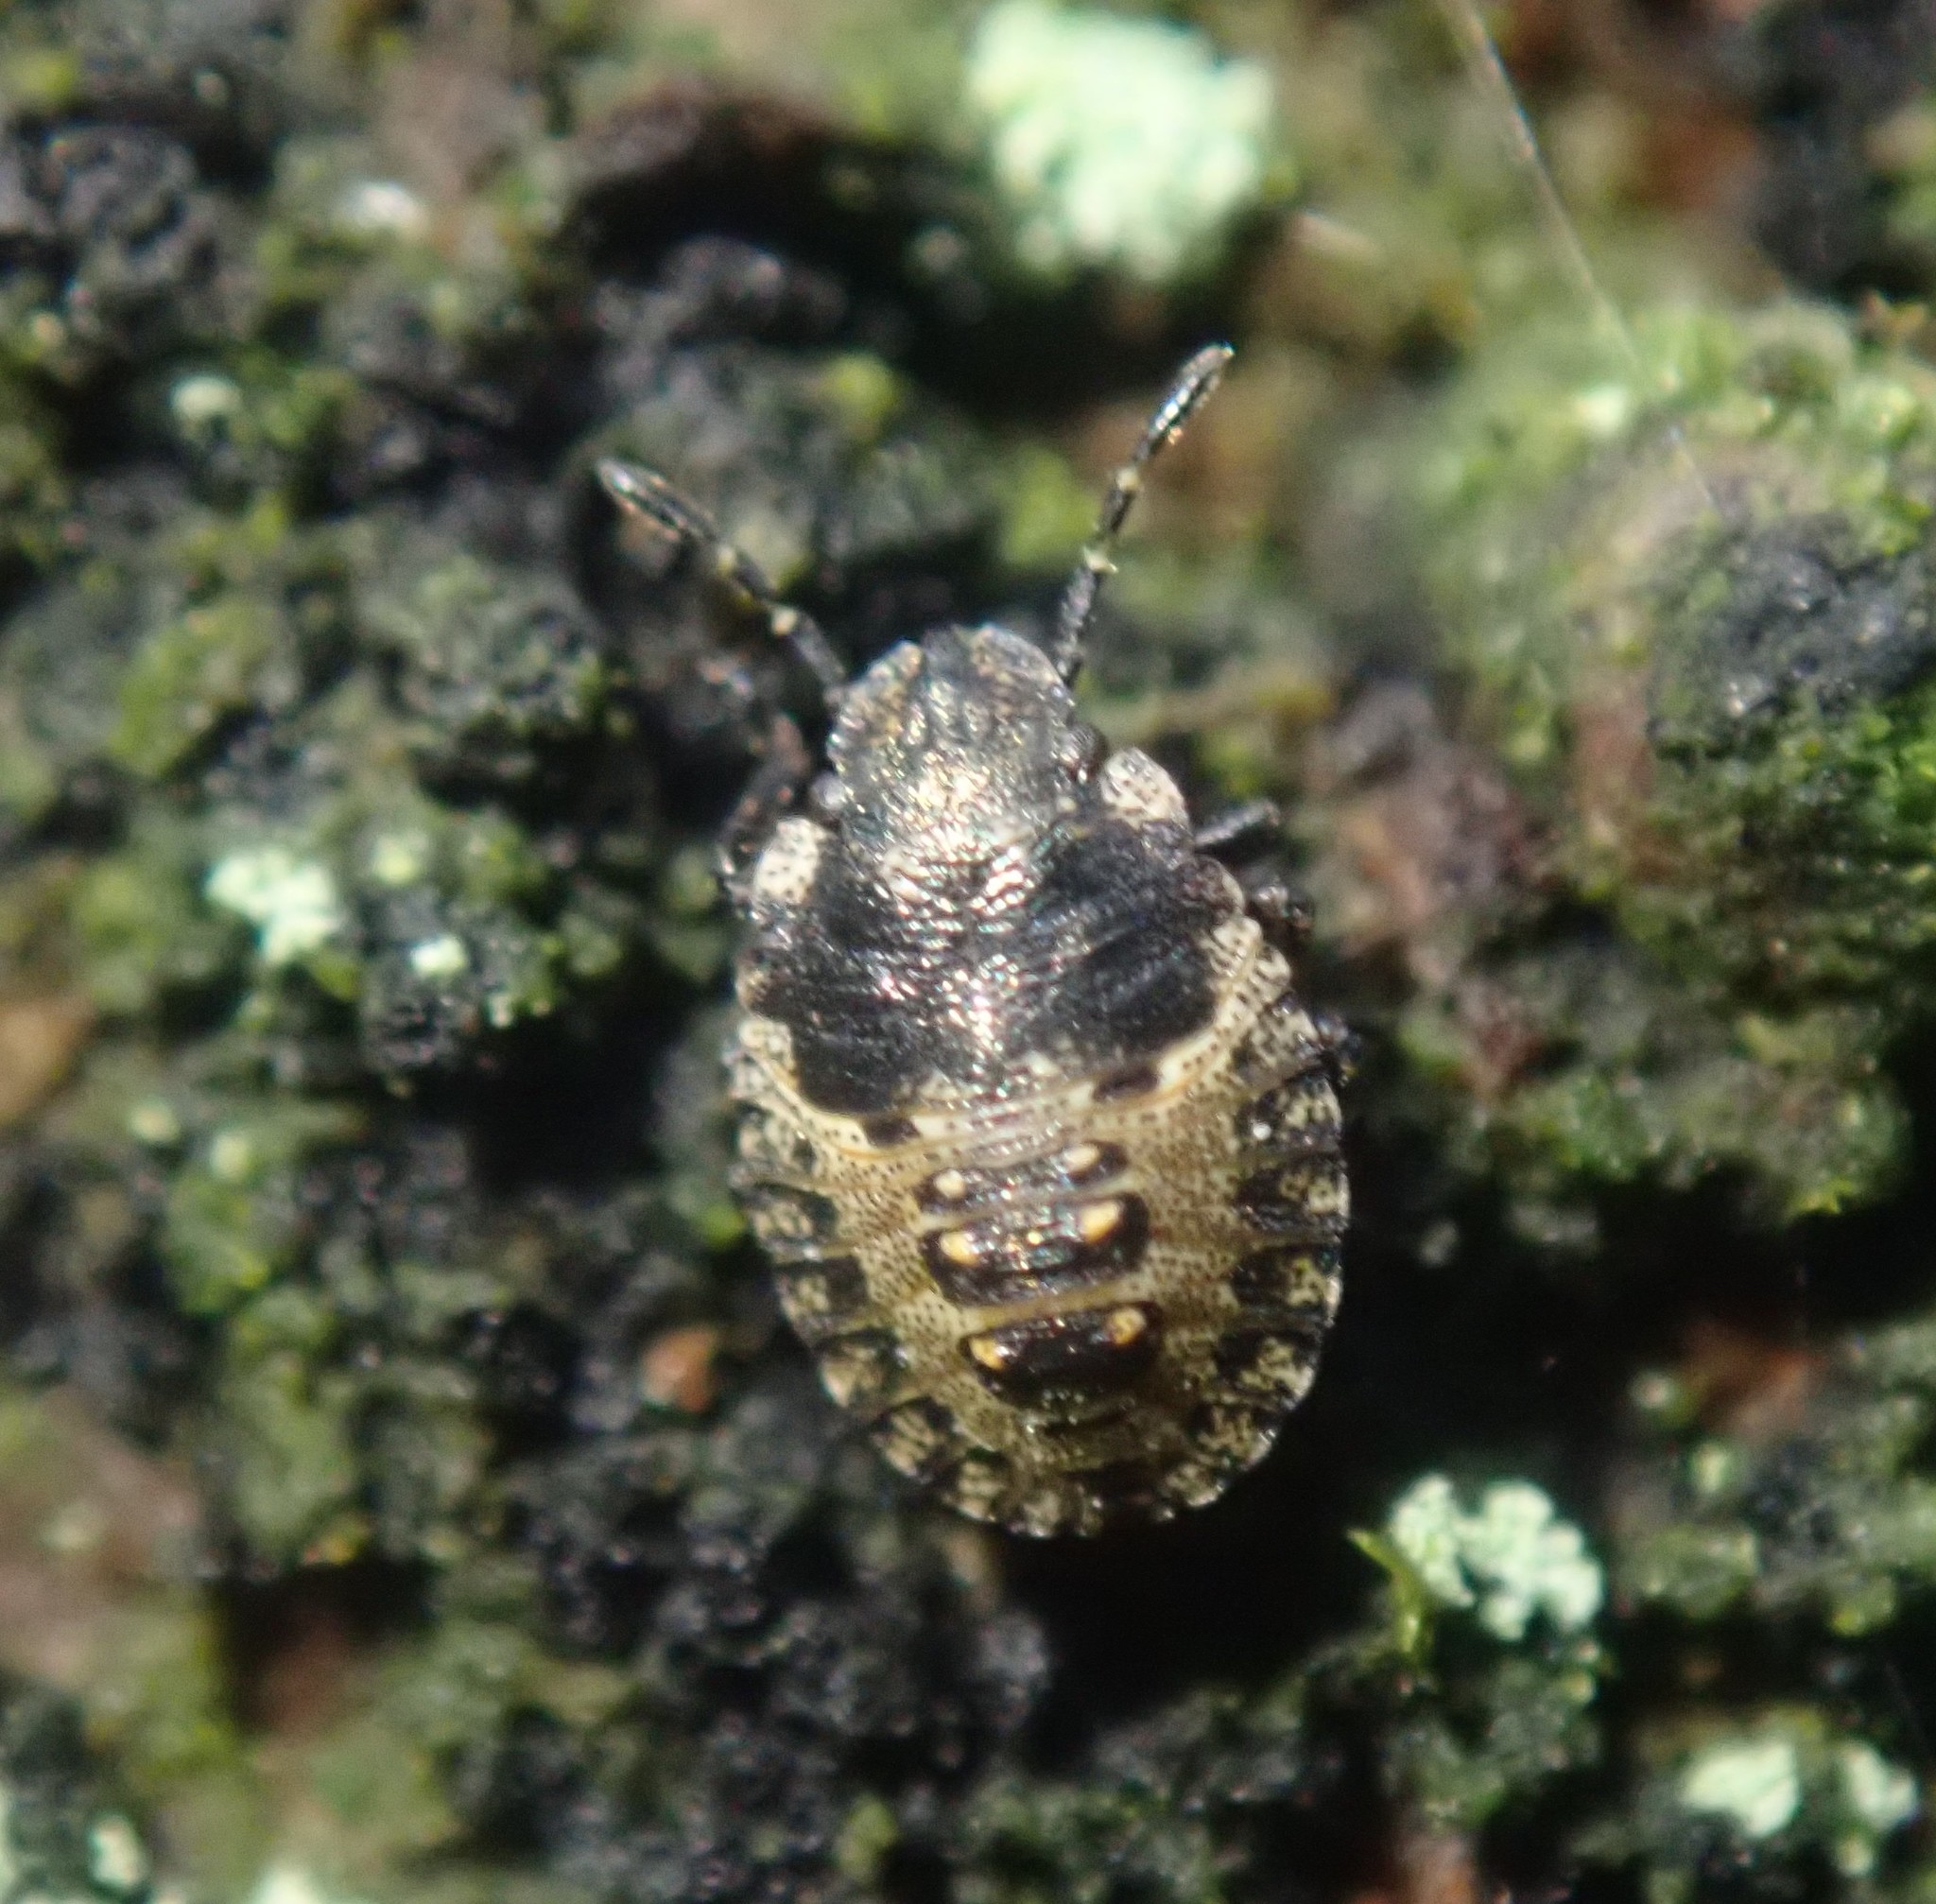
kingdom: Animalia
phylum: Arthropoda
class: Insecta
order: Hemiptera
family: Pentatomidae
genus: Pentatoma
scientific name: Pentatoma rufipes
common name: Forest bug
